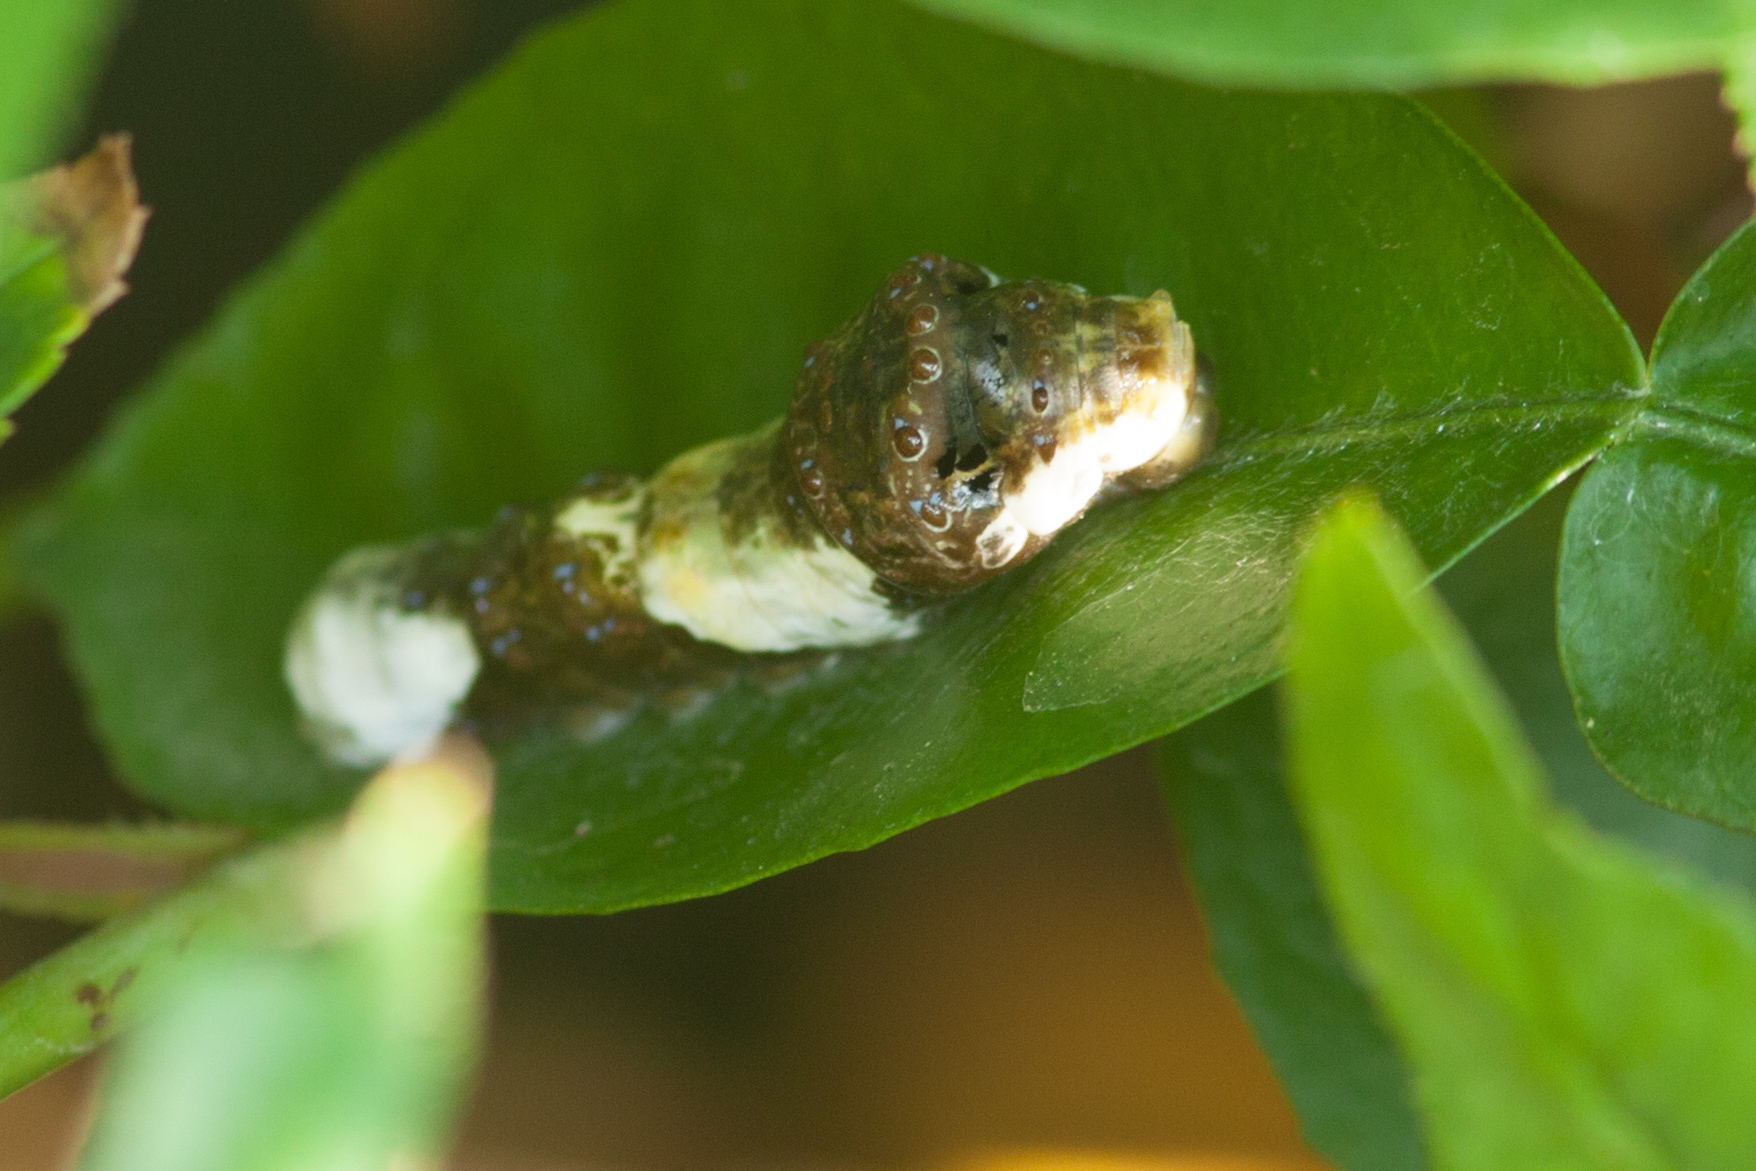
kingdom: Animalia
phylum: Arthropoda
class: Insecta
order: Lepidoptera
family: Papilionidae
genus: Papilio
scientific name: Papilio rumiko
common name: Western giant swallowtail
